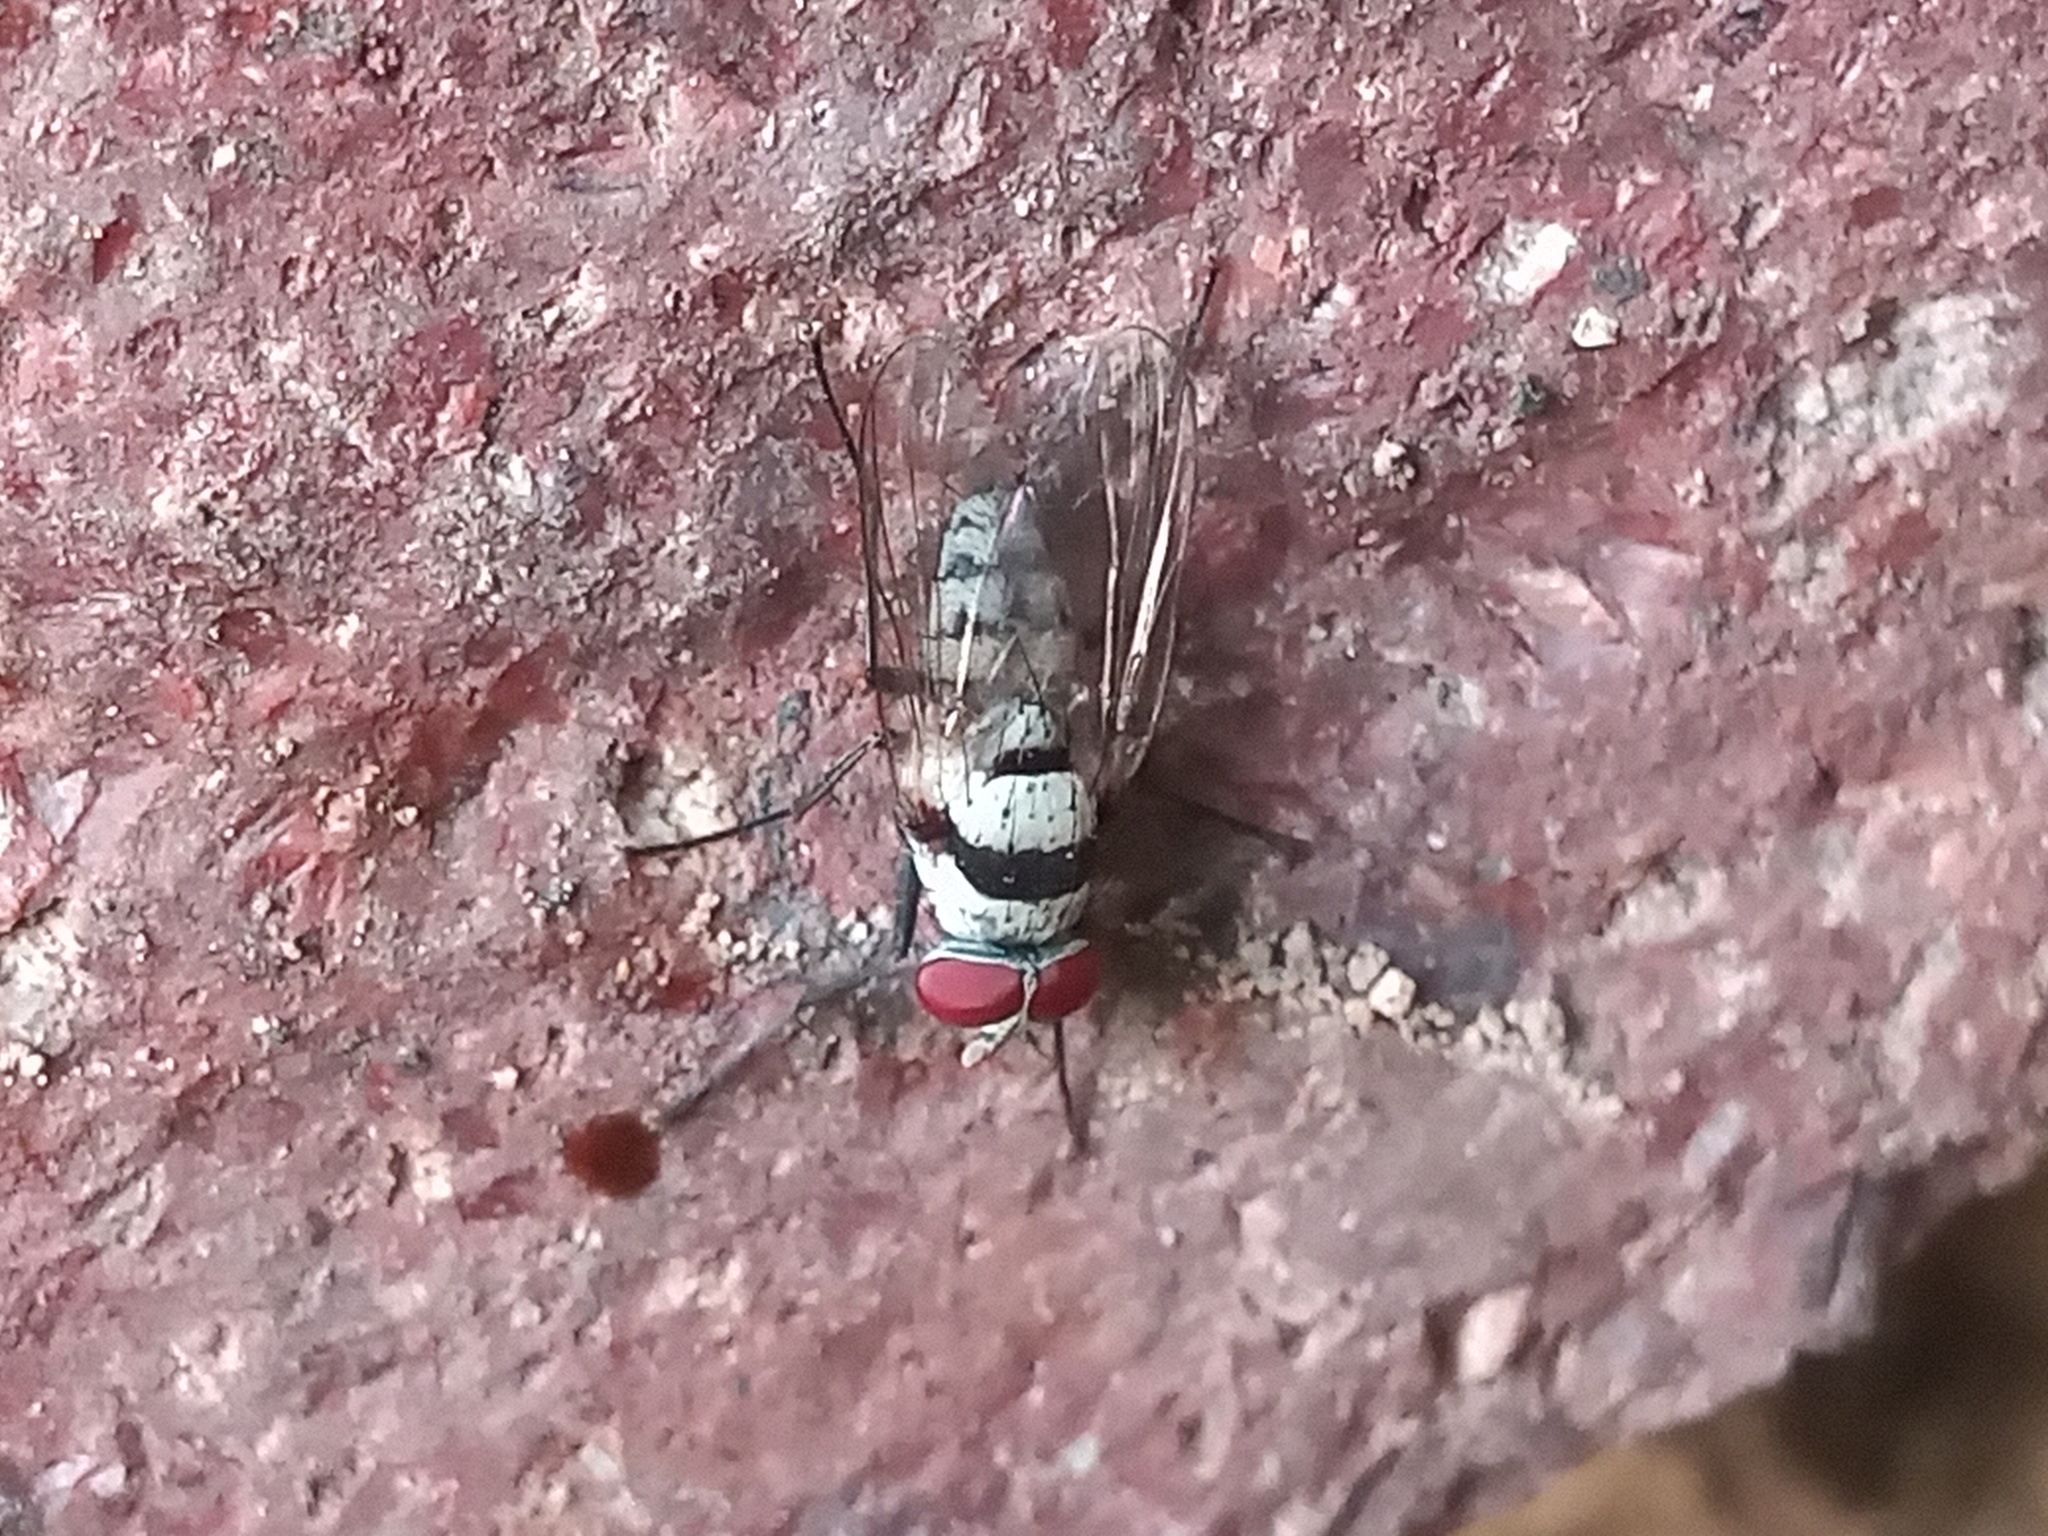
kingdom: Animalia
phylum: Arthropoda
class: Insecta
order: Diptera
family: Anthomyiidae
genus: Anthomyia
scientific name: Anthomyia illocata
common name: Fly
